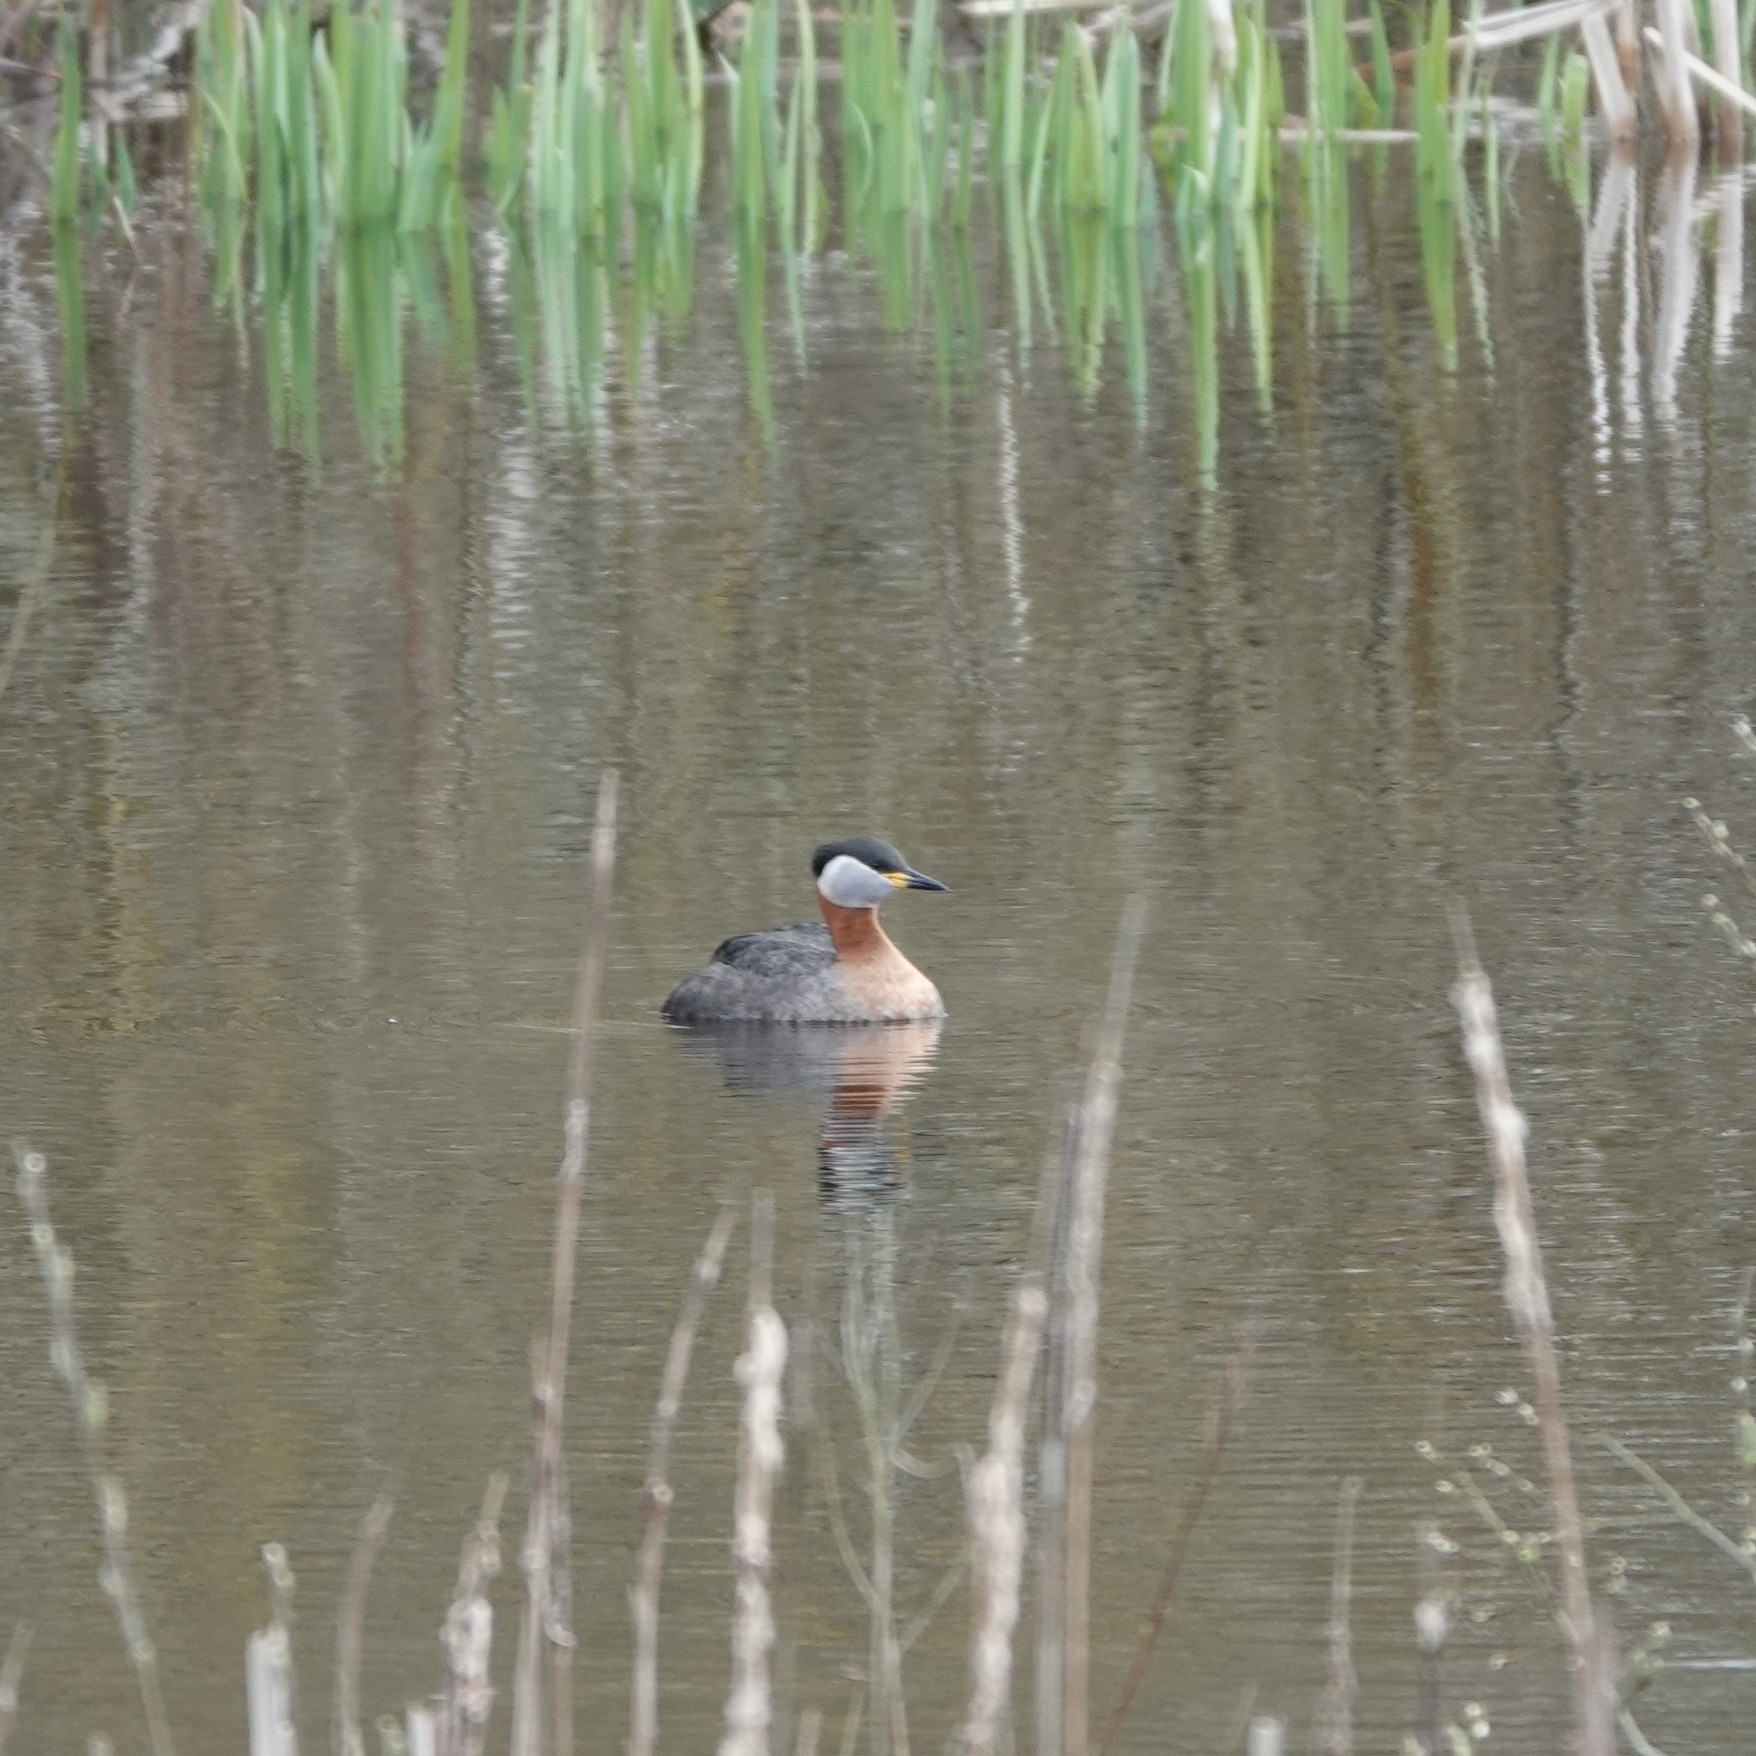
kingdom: Animalia
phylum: Chordata
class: Aves
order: Podicipediformes
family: Podicipedidae
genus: Podiceps
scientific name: Podiceps grisegena
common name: Red-necked grebe
